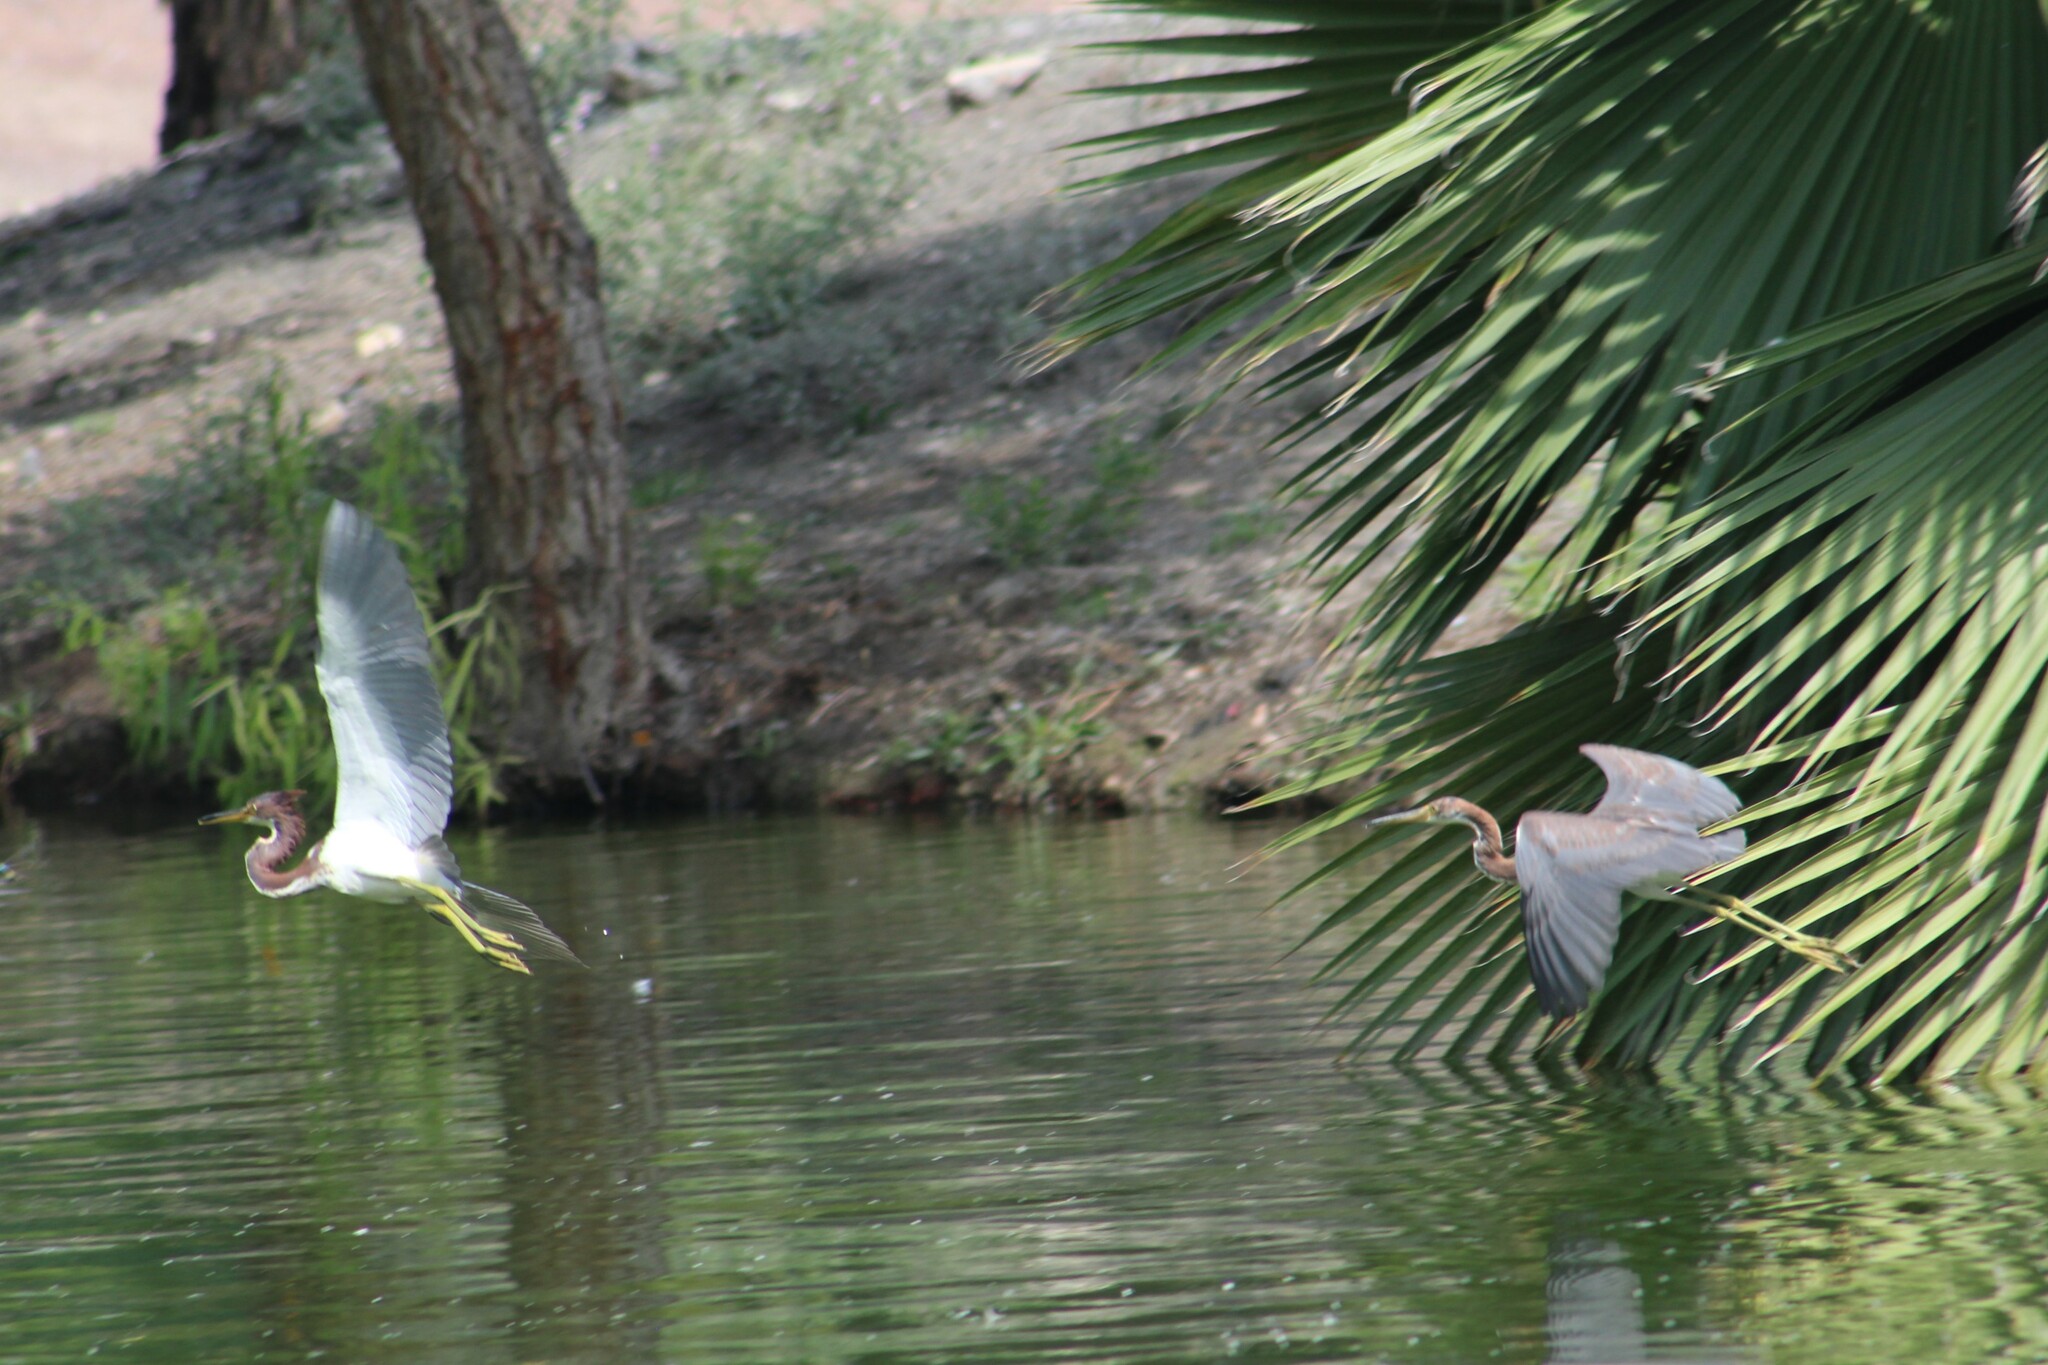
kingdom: Animalia
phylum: Chordata
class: Aves
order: Pelecaniformes
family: Ardeidae
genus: Egretta
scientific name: Egretta tricolor
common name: Tricolored heron
